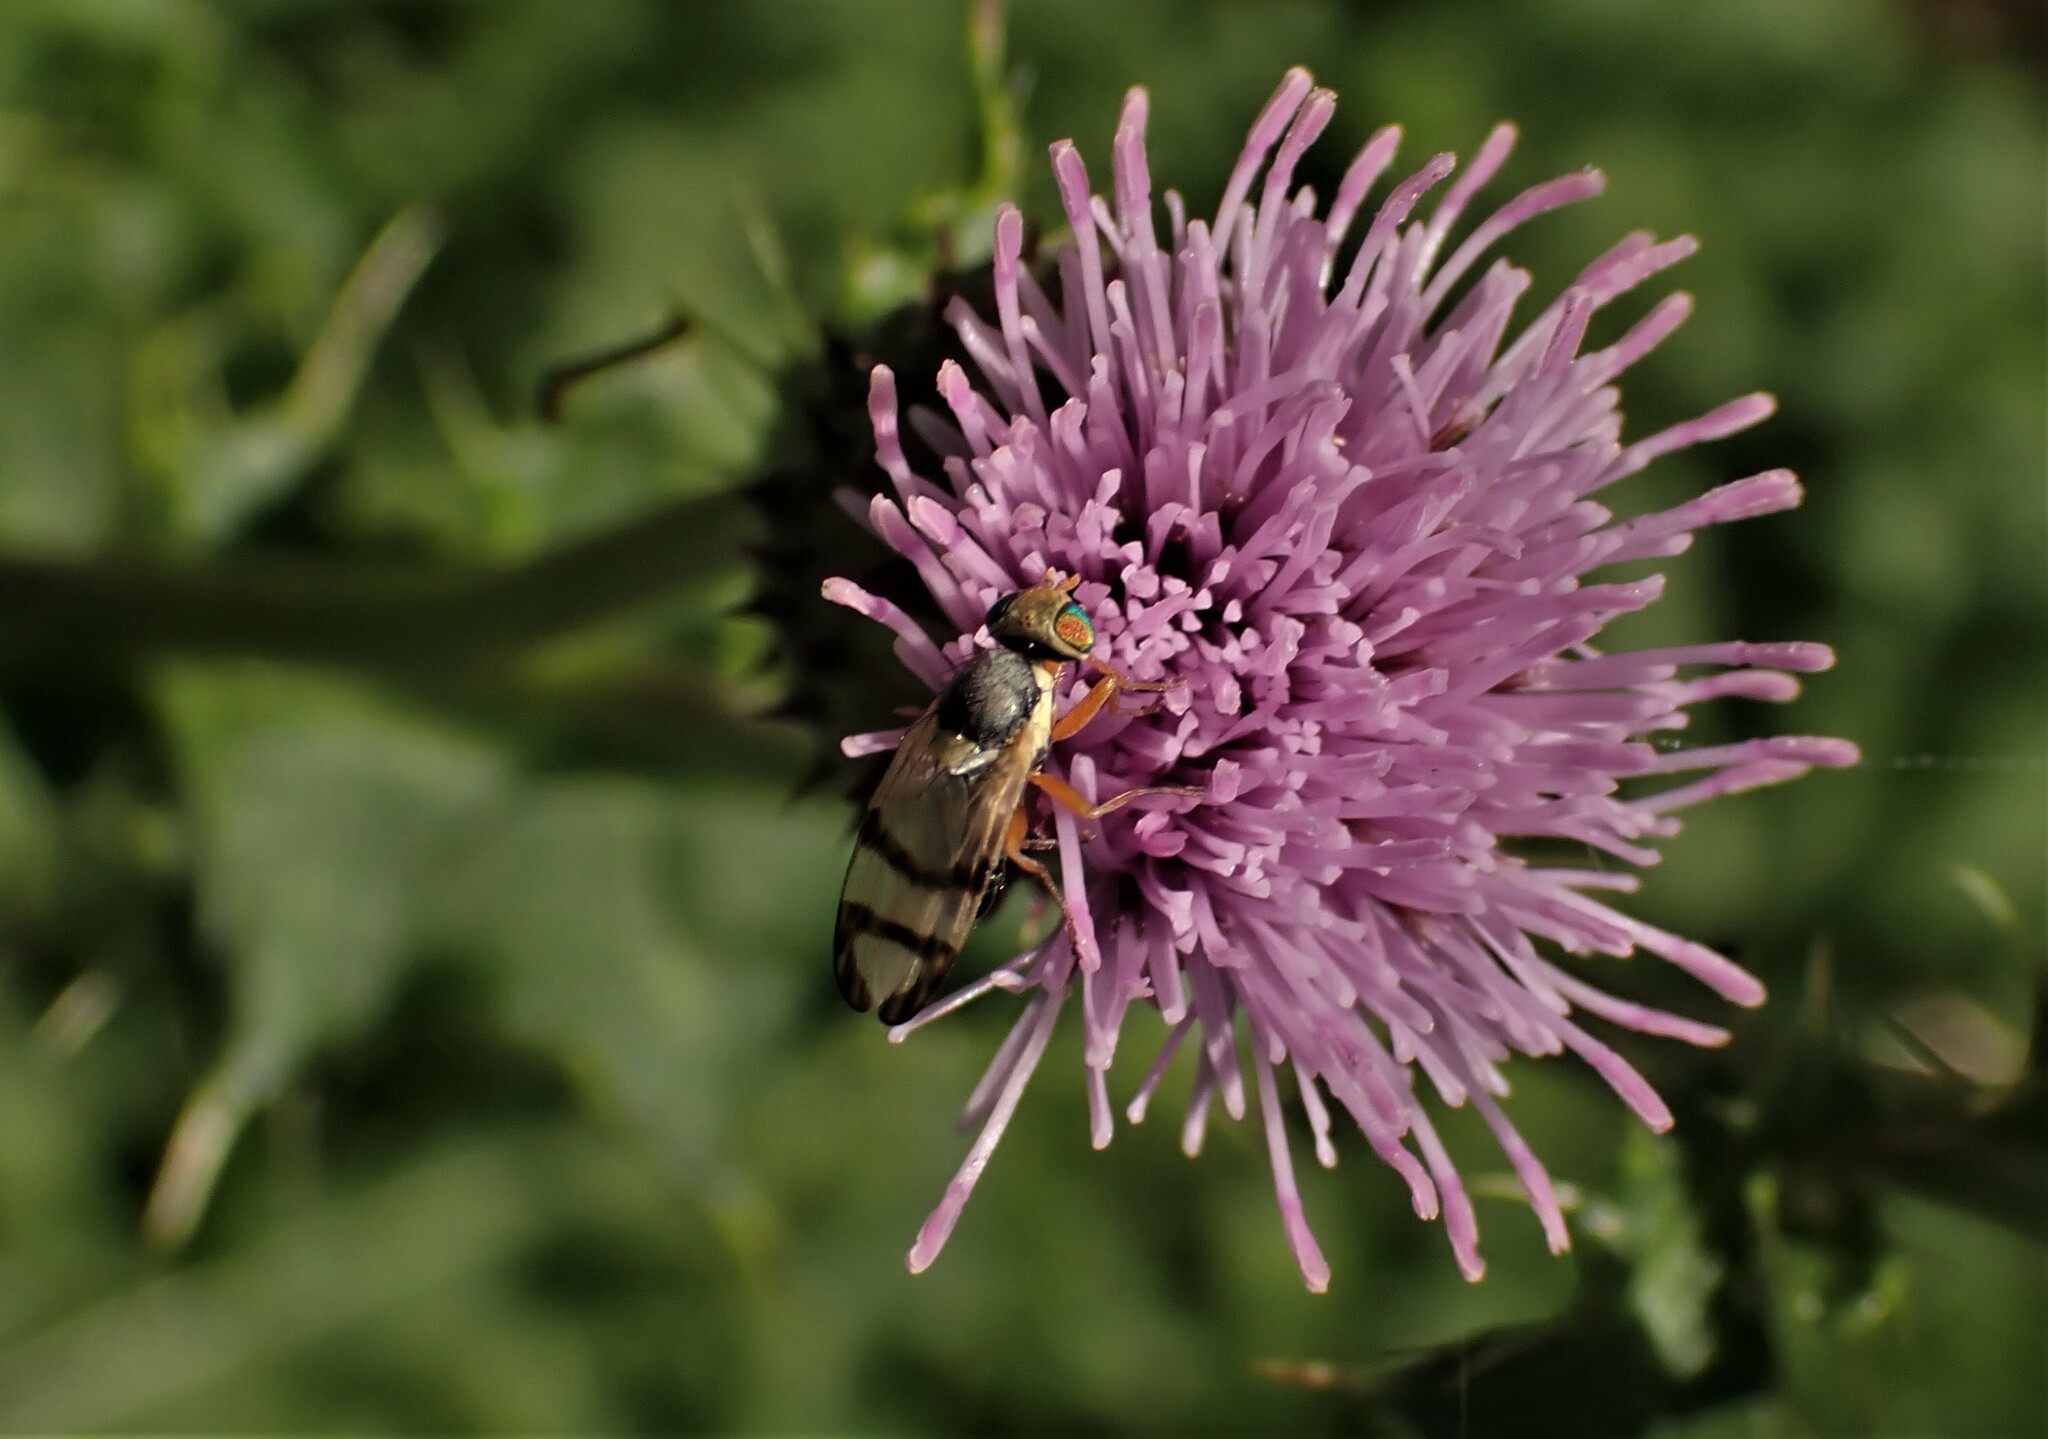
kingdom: Animalia
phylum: Arthropoda
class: Insecta
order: Diptera
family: Tephritidae
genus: Urophora
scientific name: Urophora stylata
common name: Fruit fly
